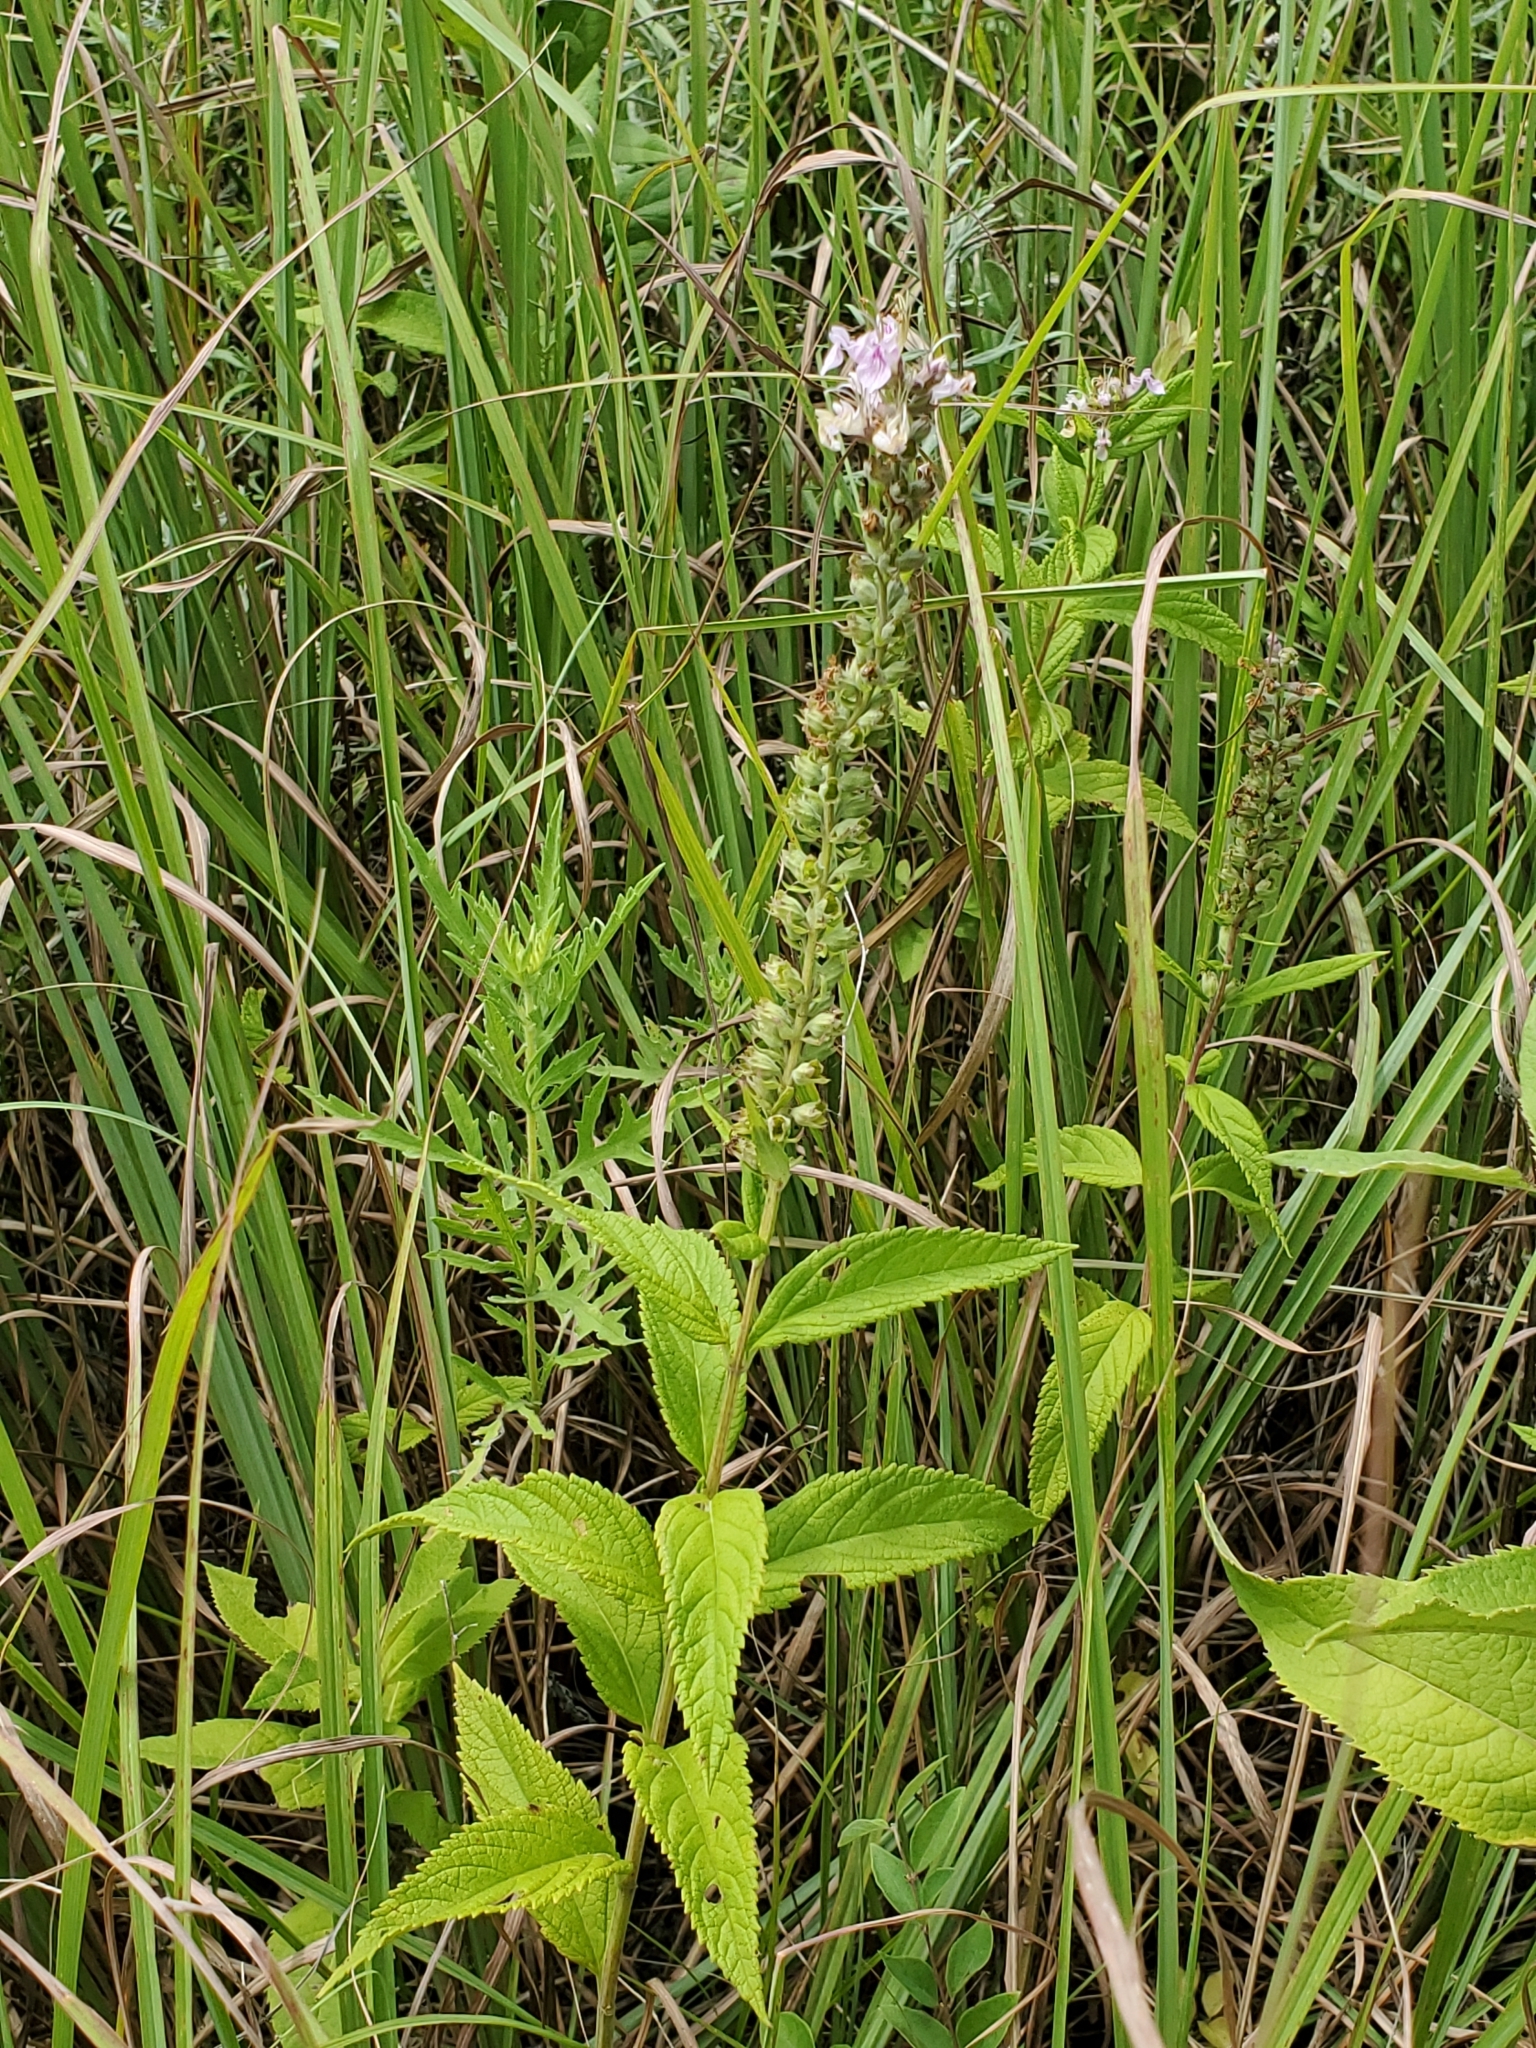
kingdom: Plantae
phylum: Tracheophyta
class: Magnoliopsida
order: Lamiales
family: Lamiaceae
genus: Teucrium
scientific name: Teucrium canadense
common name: American germander
